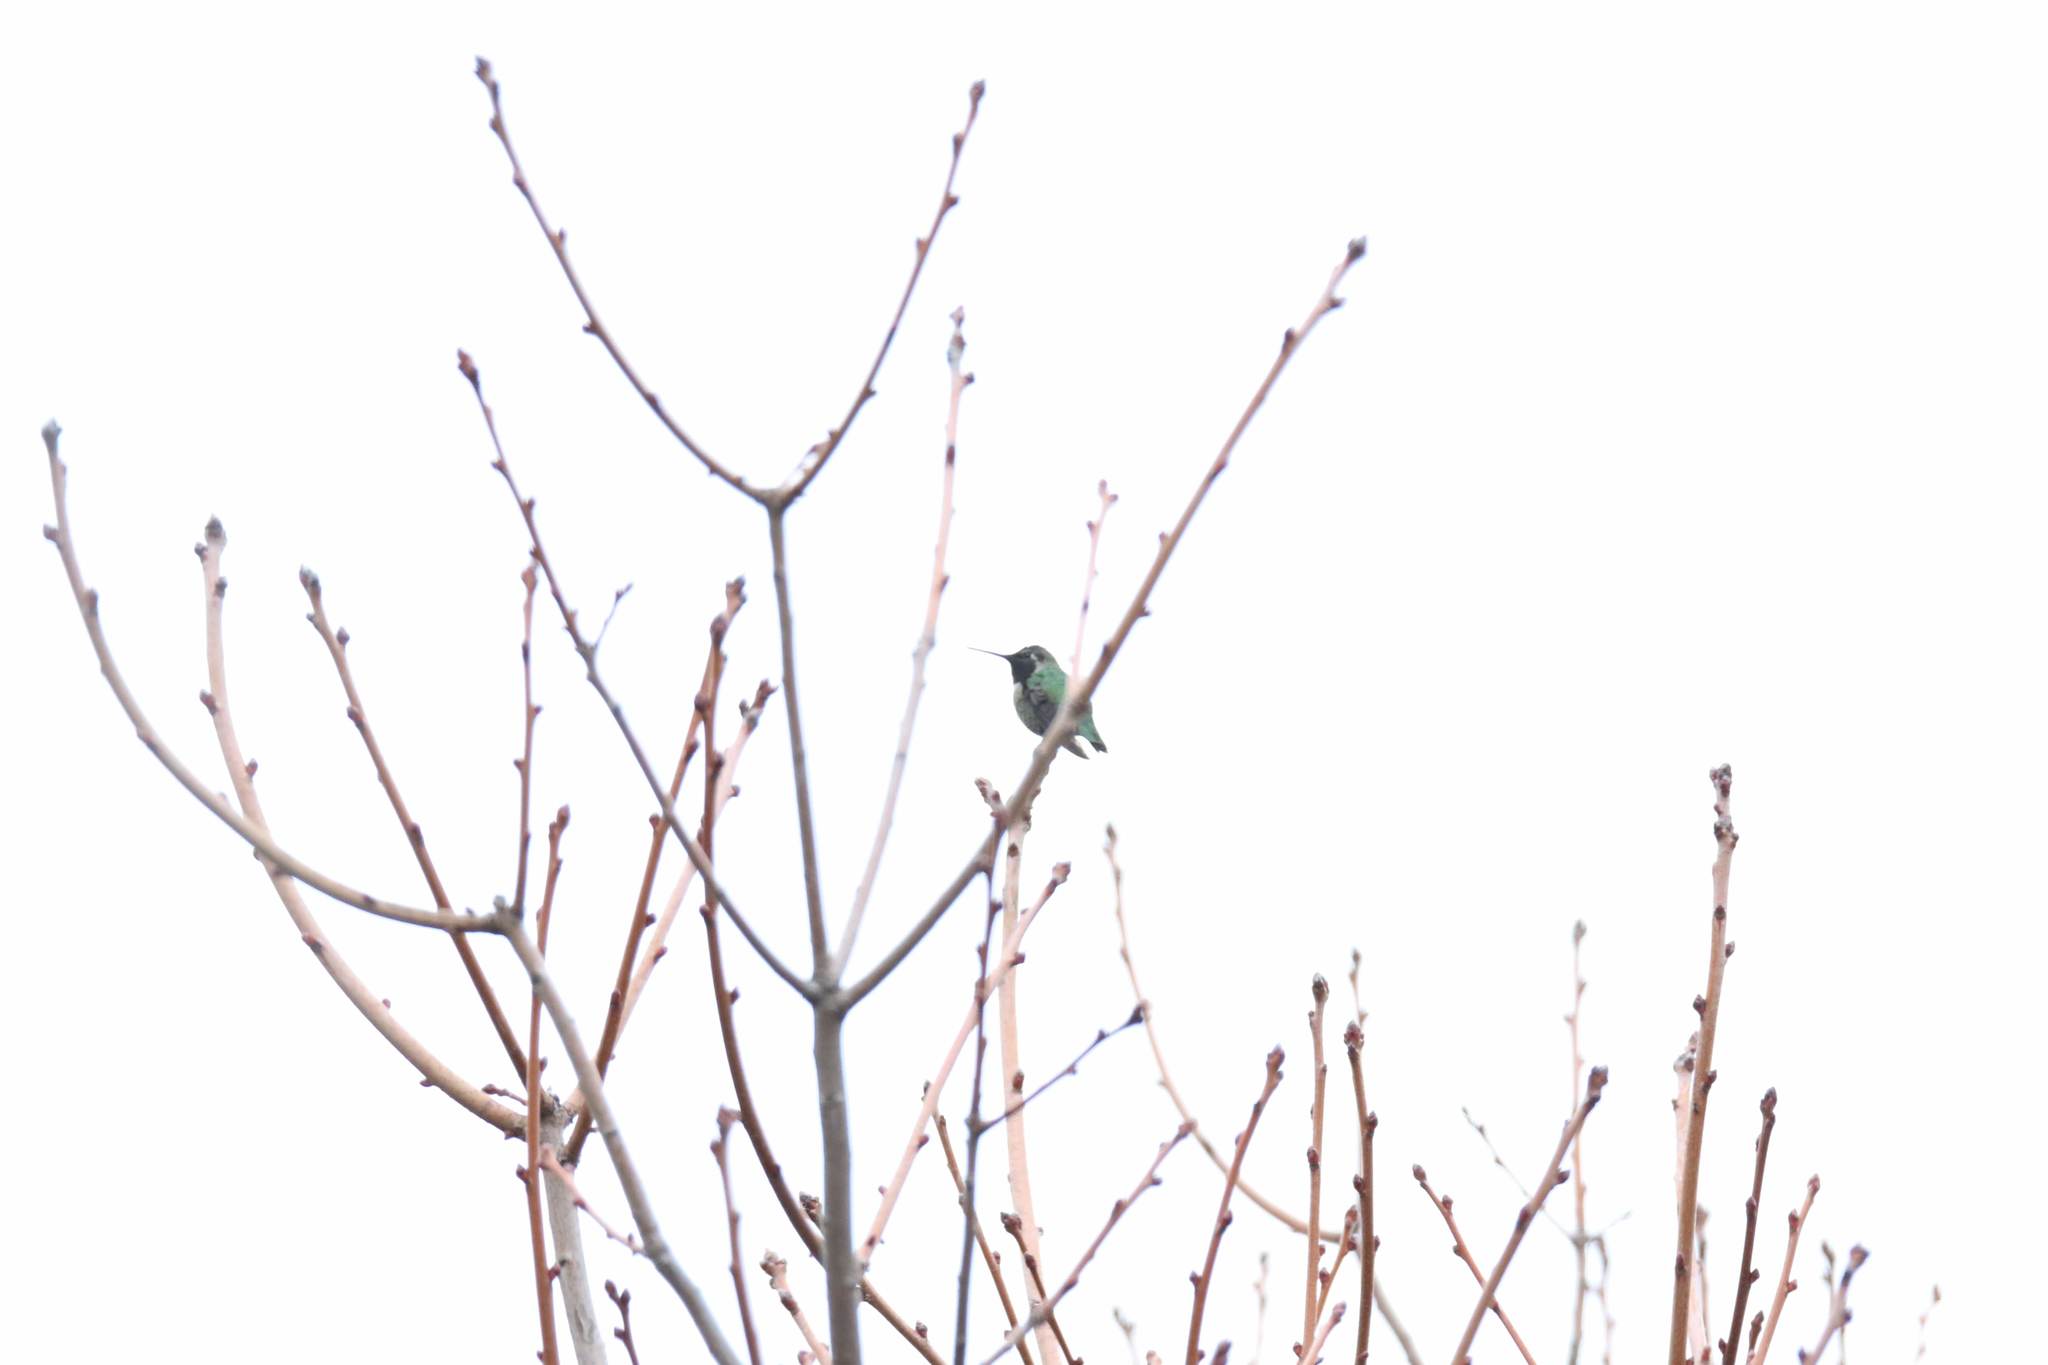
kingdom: Animalia
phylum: Chordata
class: Aves
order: Apodiformes
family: Trochilidae
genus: Calypte
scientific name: Calypte anna
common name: Anna's hummingbird
